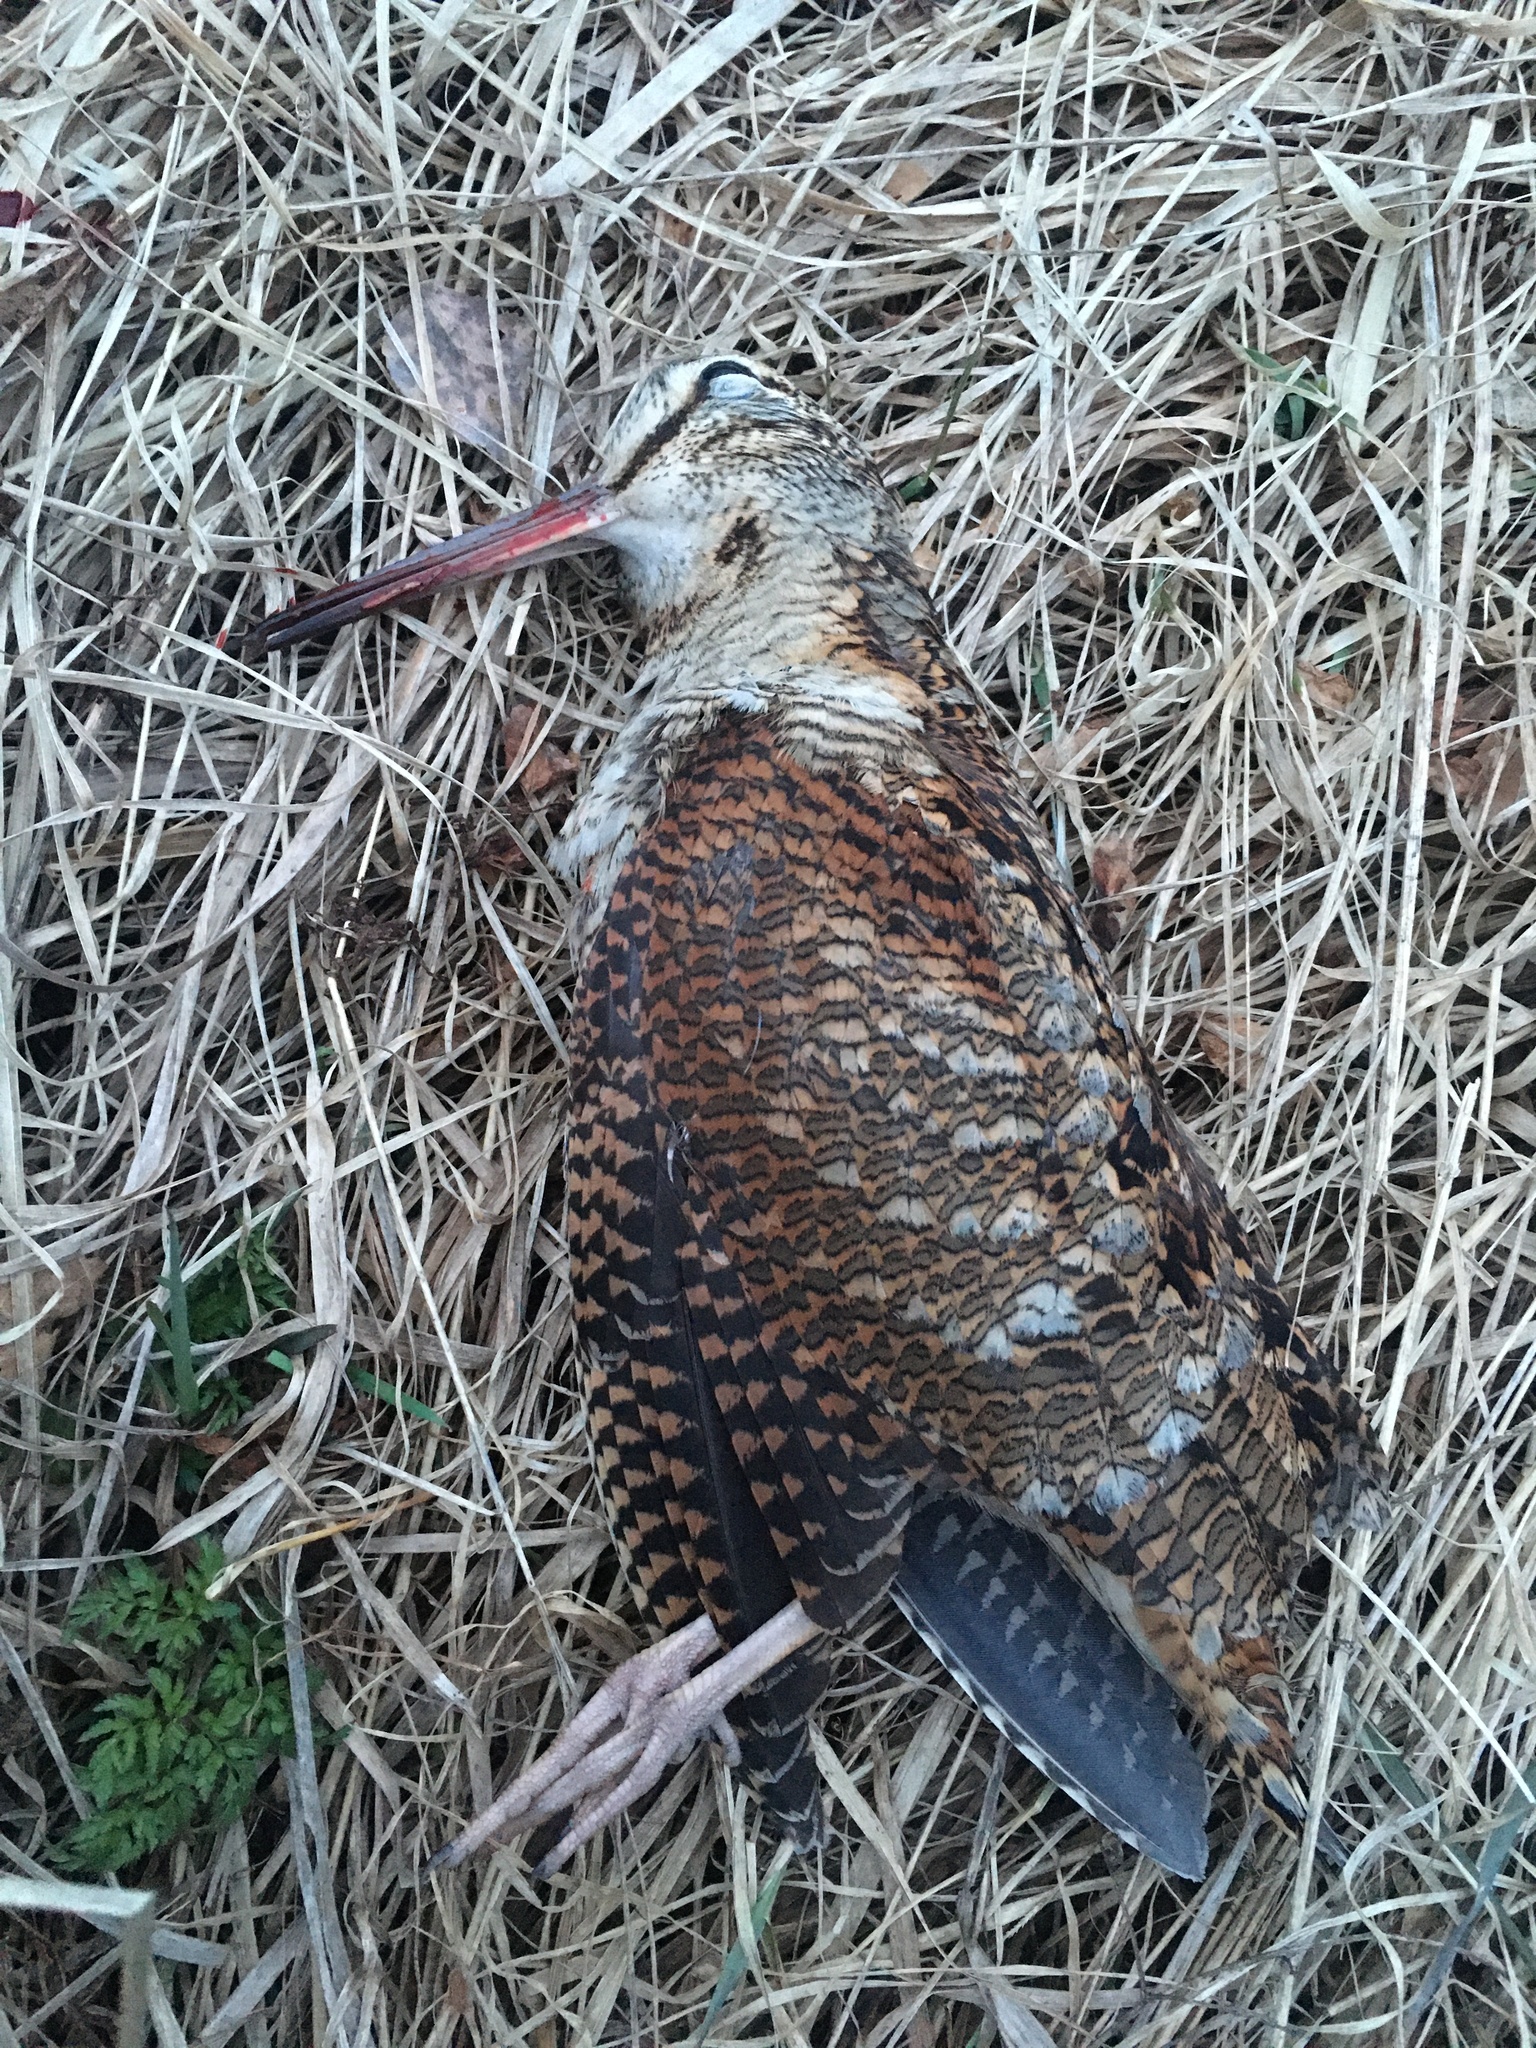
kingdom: Animalia
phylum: Chordata
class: Aves
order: Charadriiformes
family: Scolopacidae
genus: Scolopax
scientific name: Scolopax rusticola
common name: Eurasian woodcock
